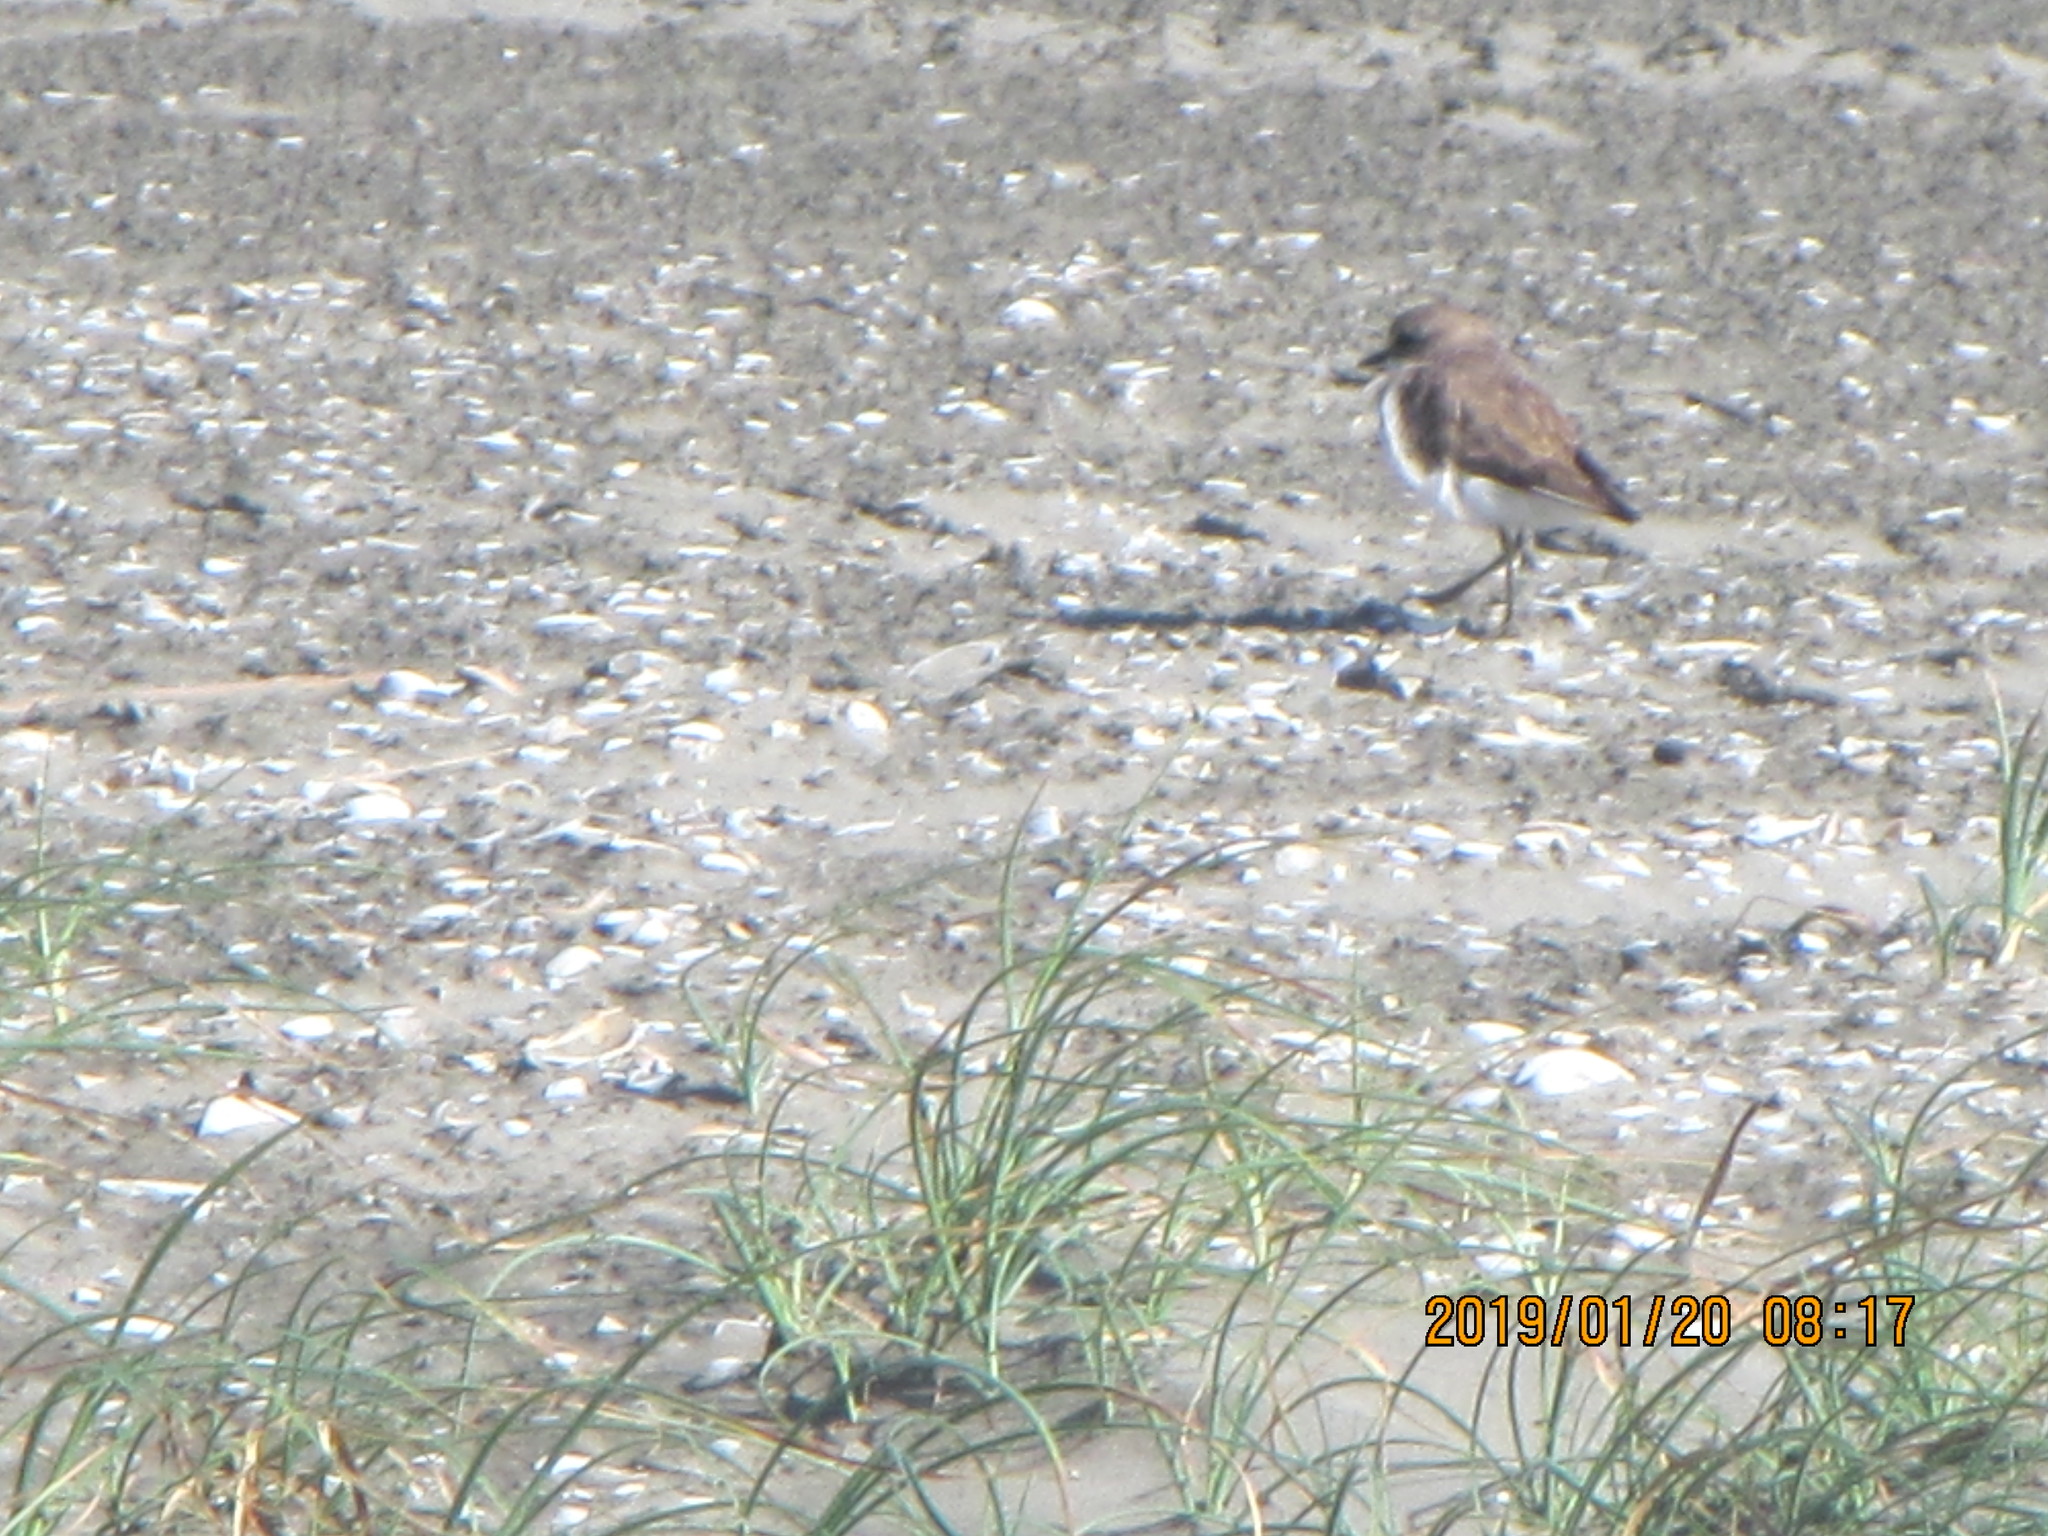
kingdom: Animalia
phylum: Chordata
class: Aves
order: Charadriiformes
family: Charadriidae
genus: Anarhynchus
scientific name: Anarhynchus
